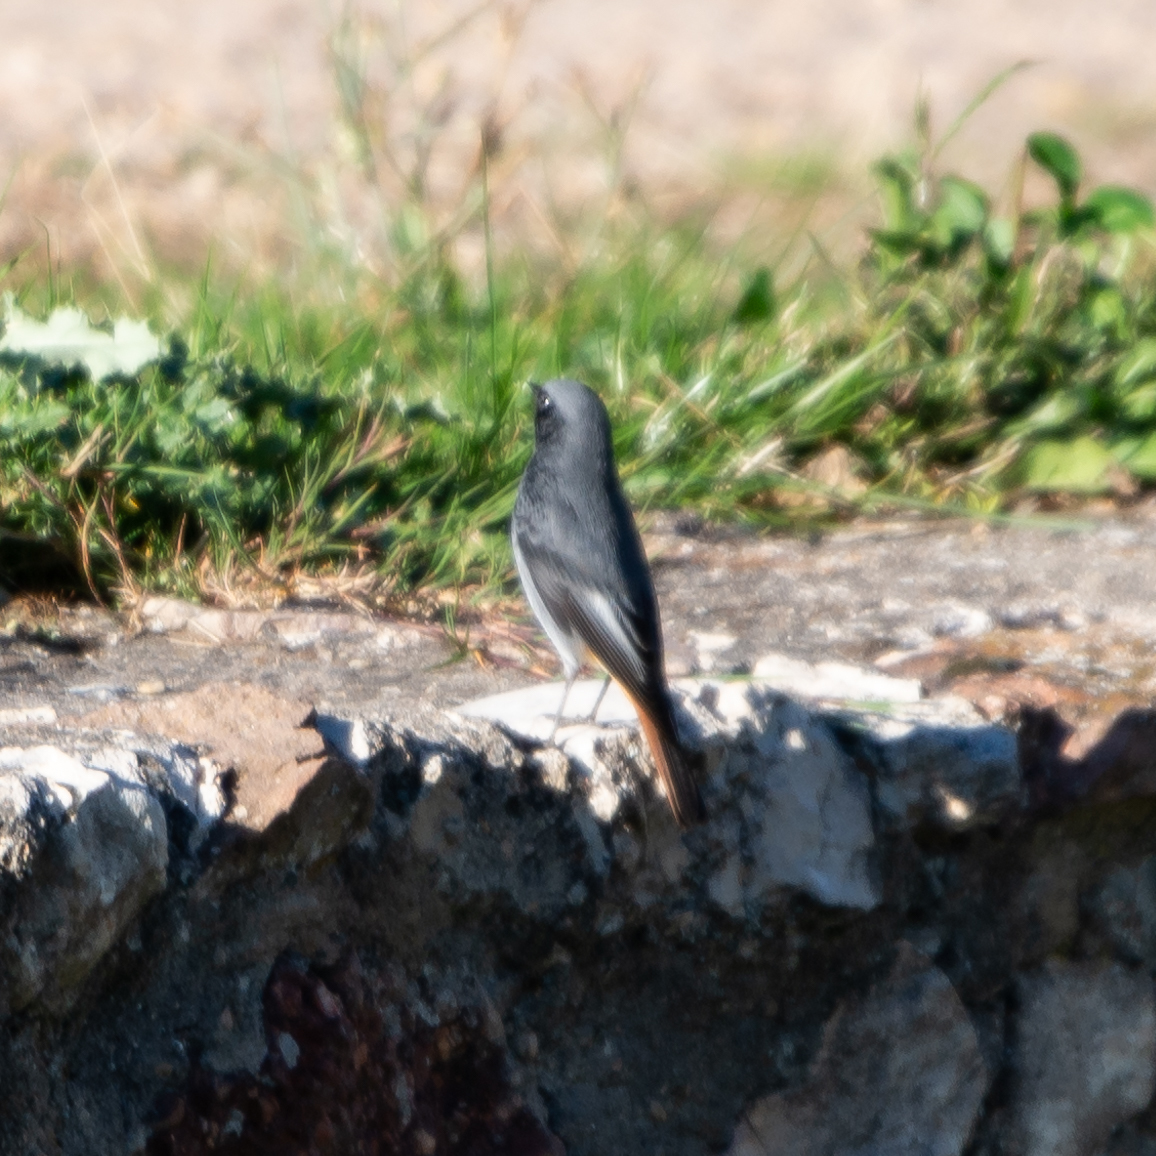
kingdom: Animalia
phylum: Chordata
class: Aves
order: Passeriformes
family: Muscicapidae
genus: Phoenicurus
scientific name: Phoenicurus ochruros
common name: Black redstart
